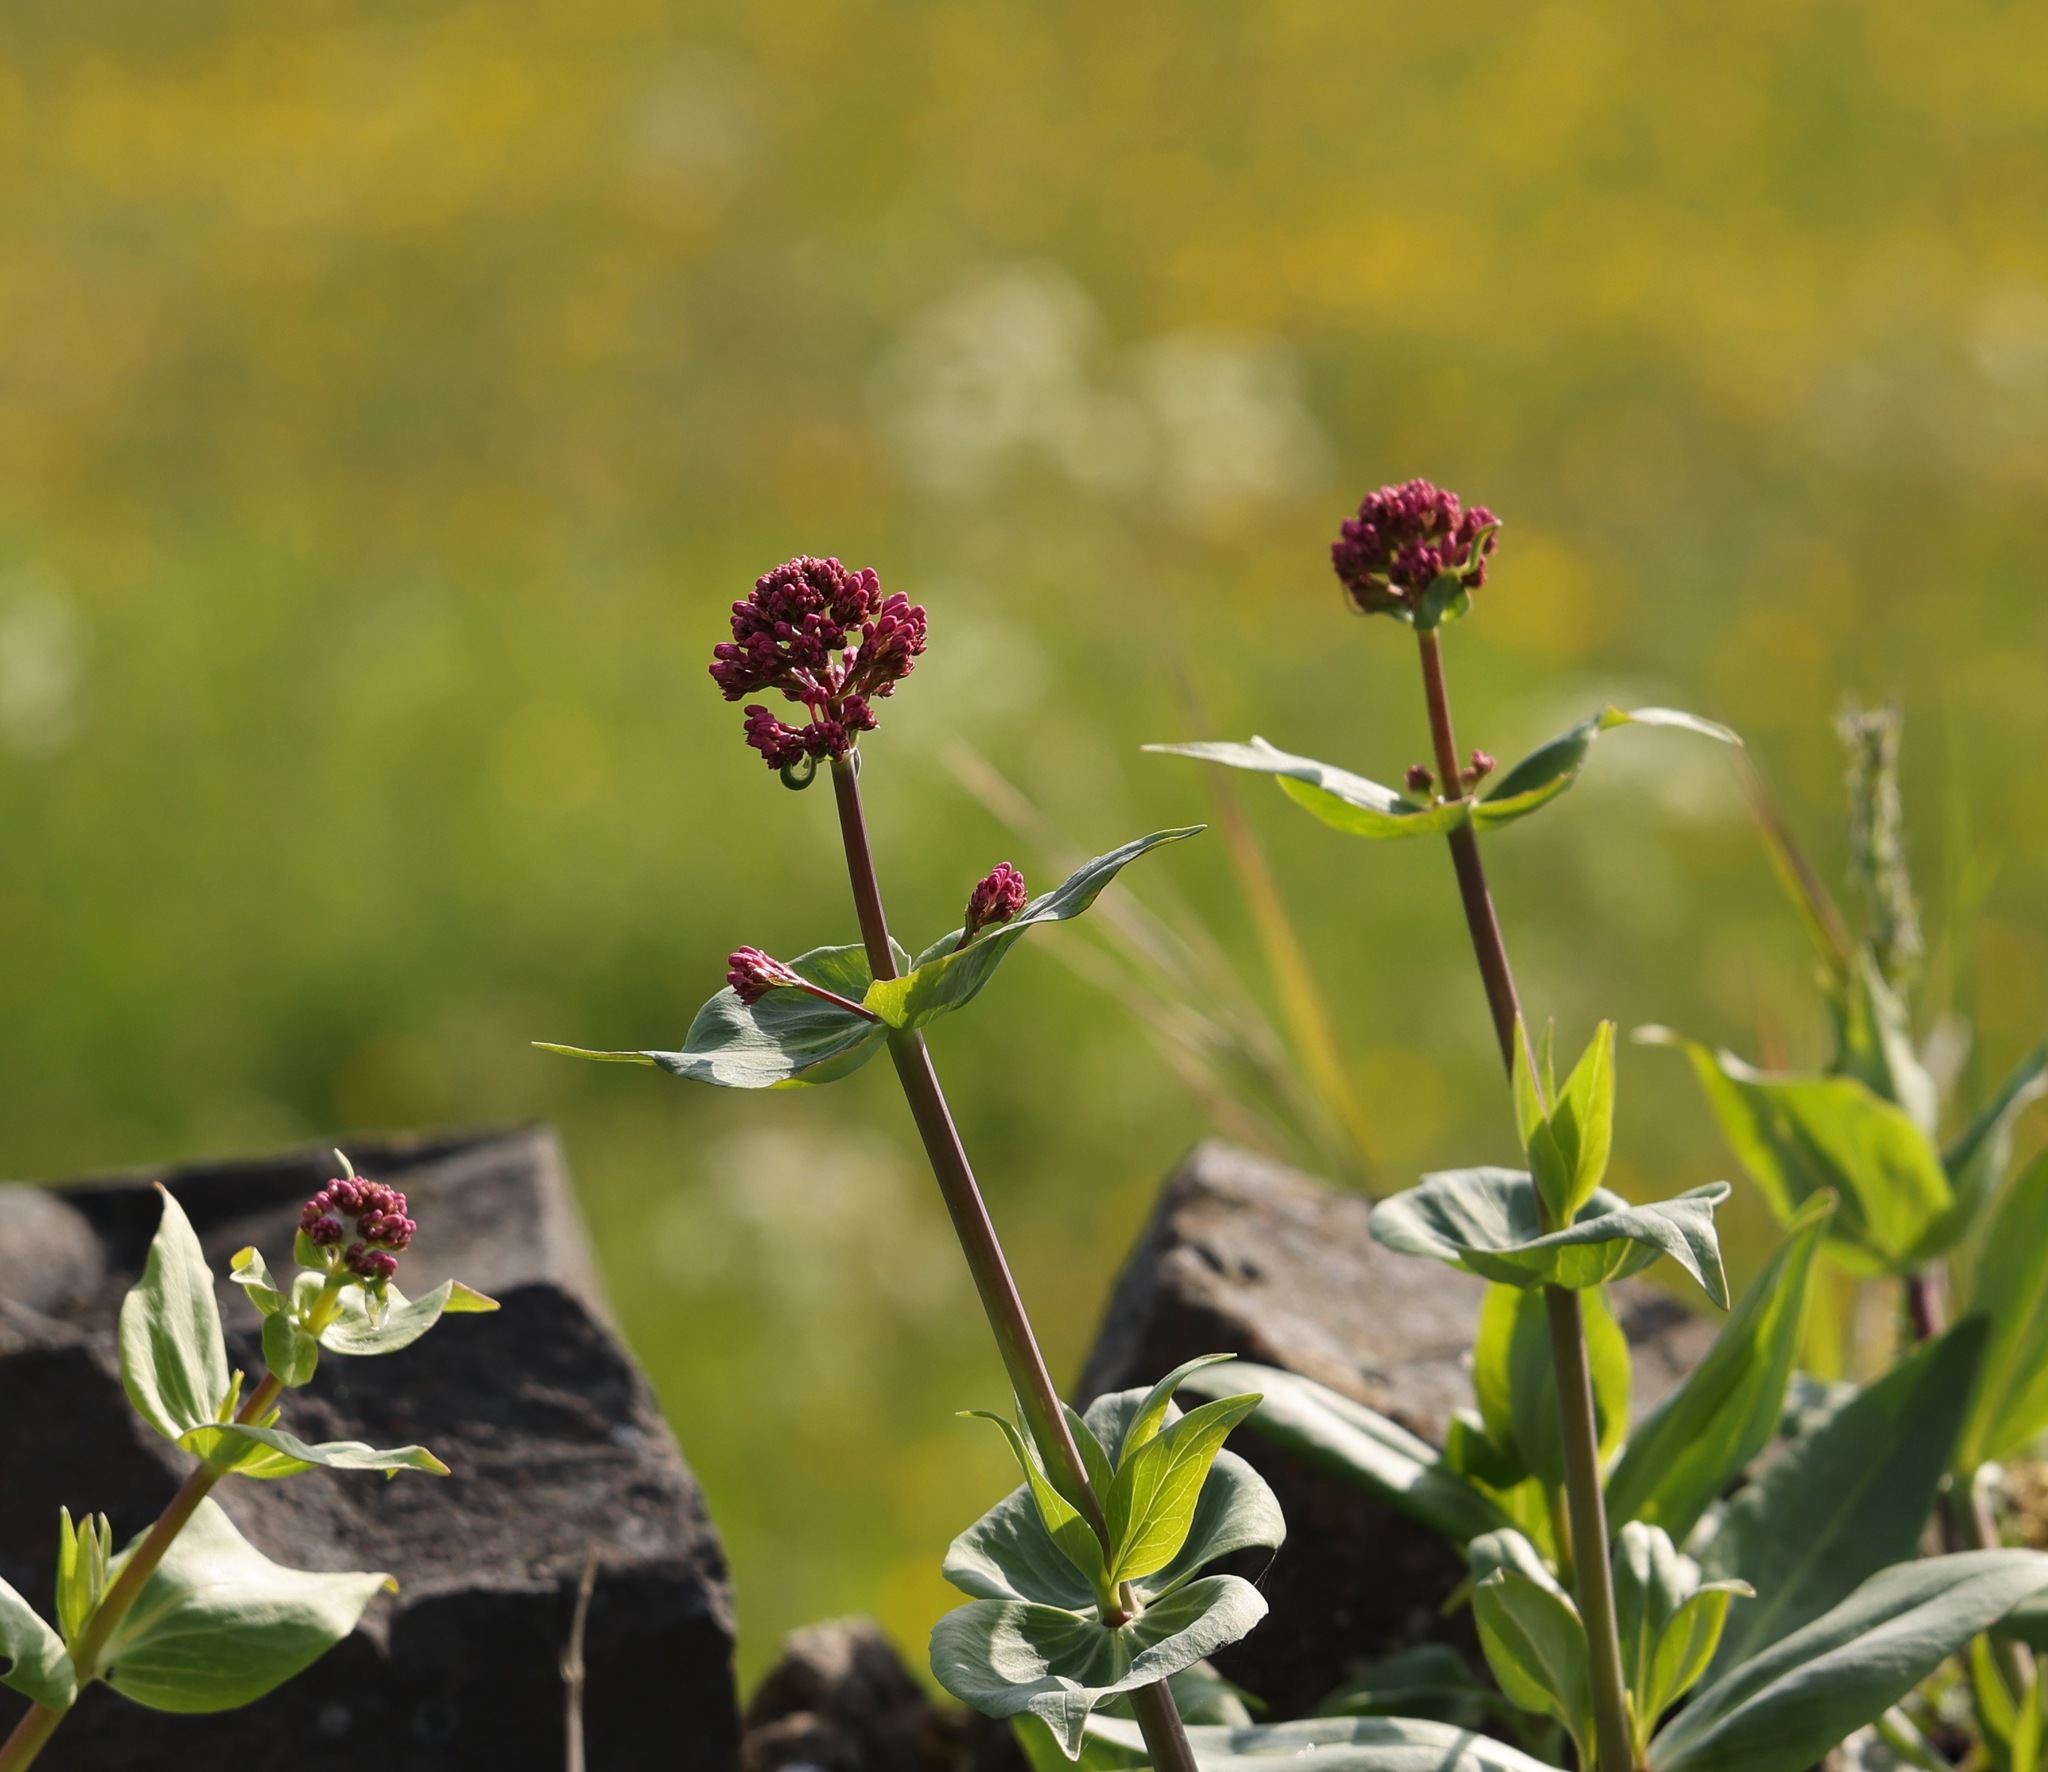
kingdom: Plantae
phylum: Tracheophyta
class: Magnoliopsida
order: Dipsacales
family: Caprifoliaceae
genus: Centranthus
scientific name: Centranthus ruber
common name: Red valerian
